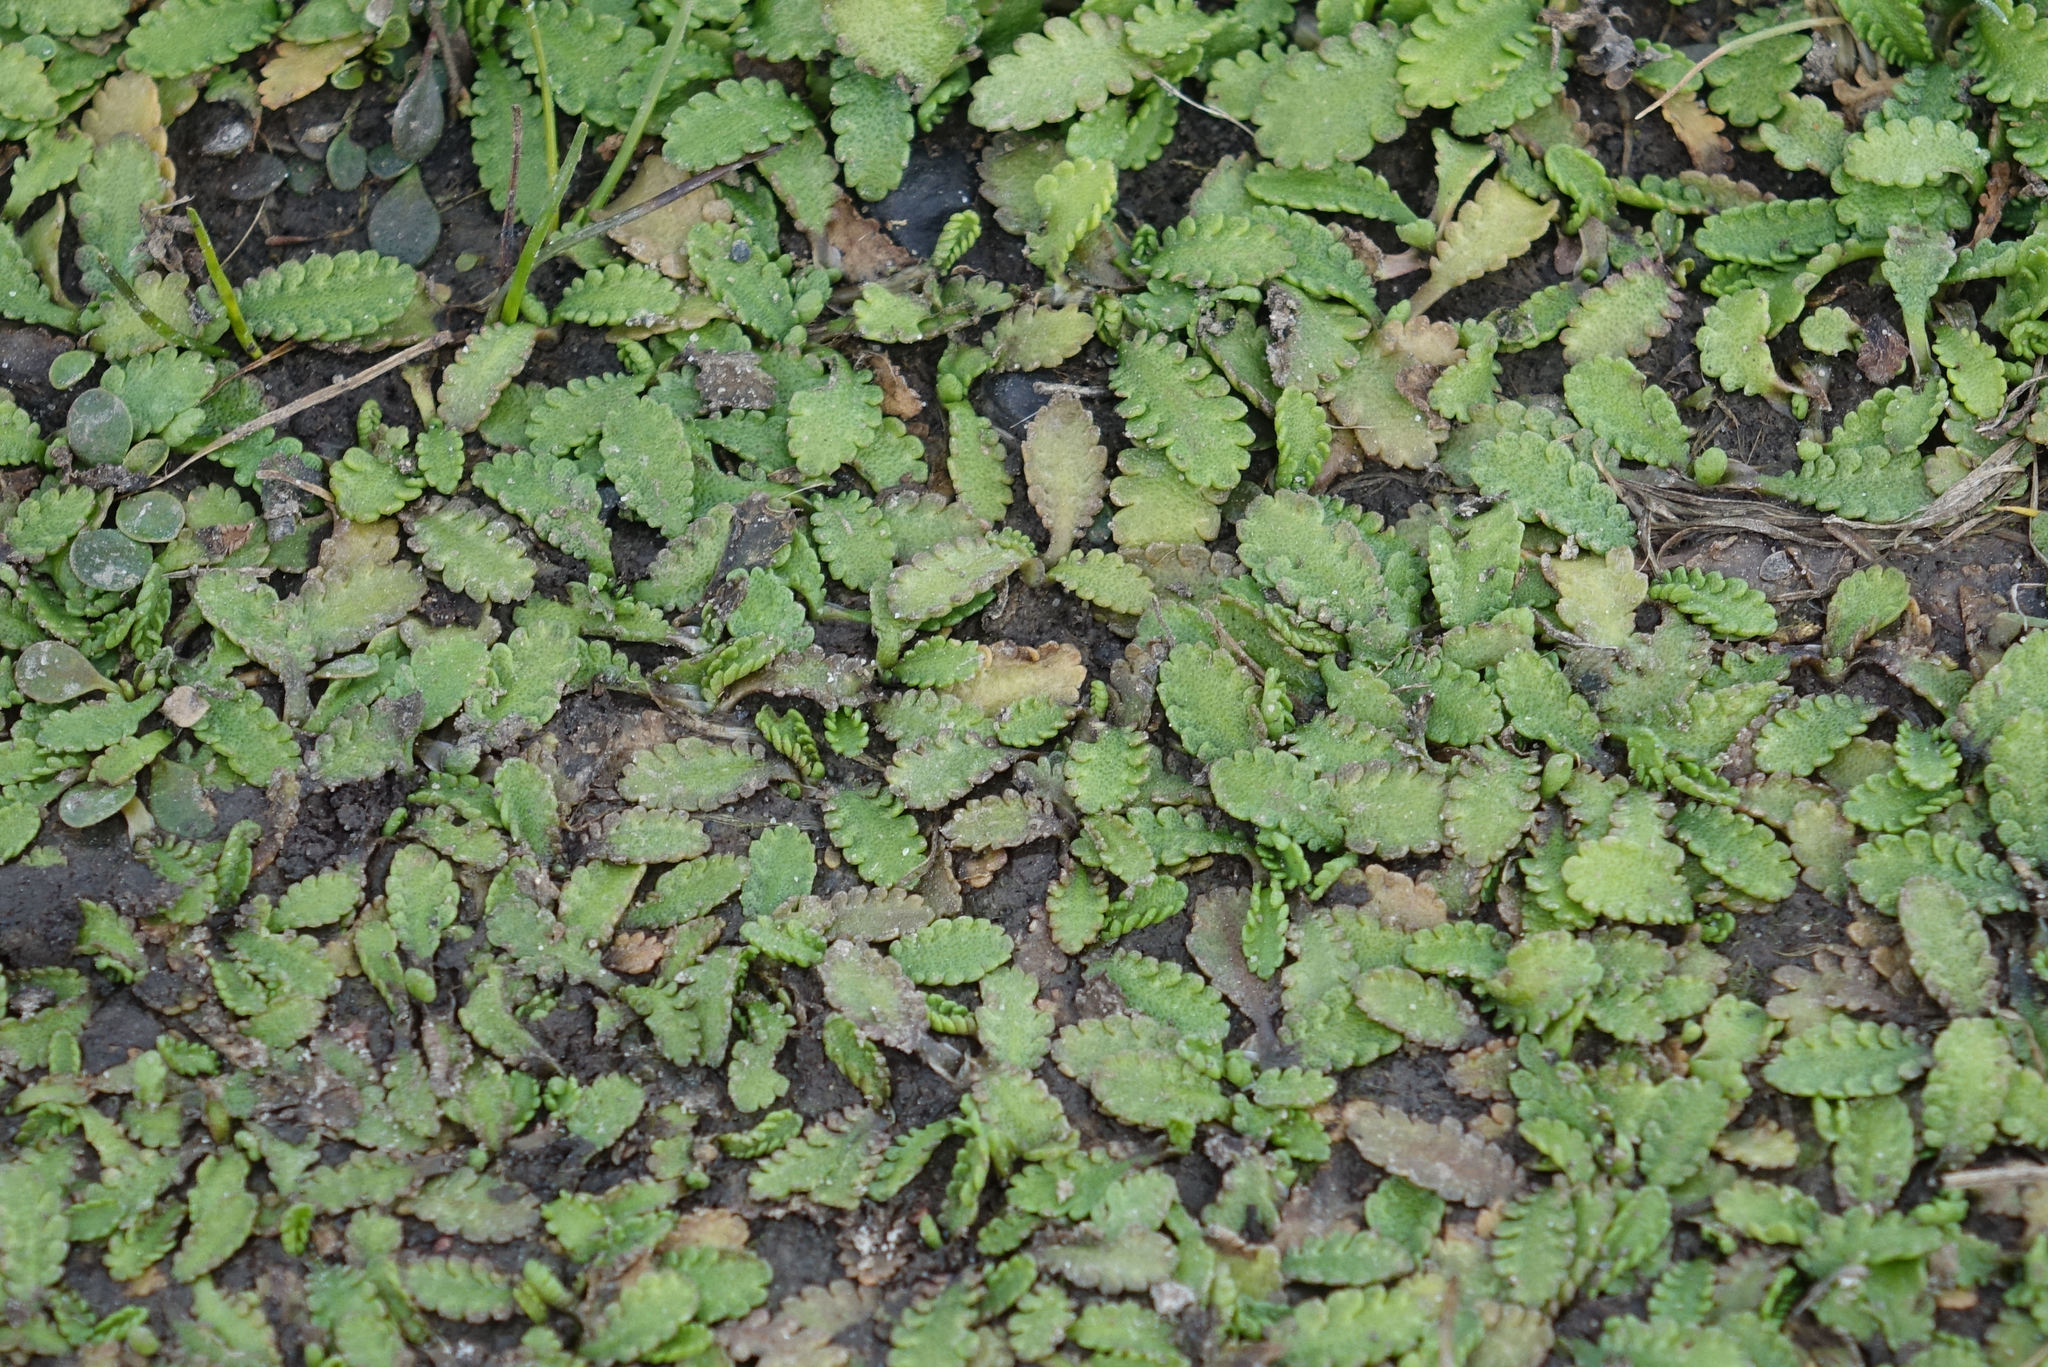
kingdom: Plantae
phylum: Tracheophyta
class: Magnoliopsida
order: Asterales
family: Asteraceae
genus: Leptinella
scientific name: Leptinella dioica
